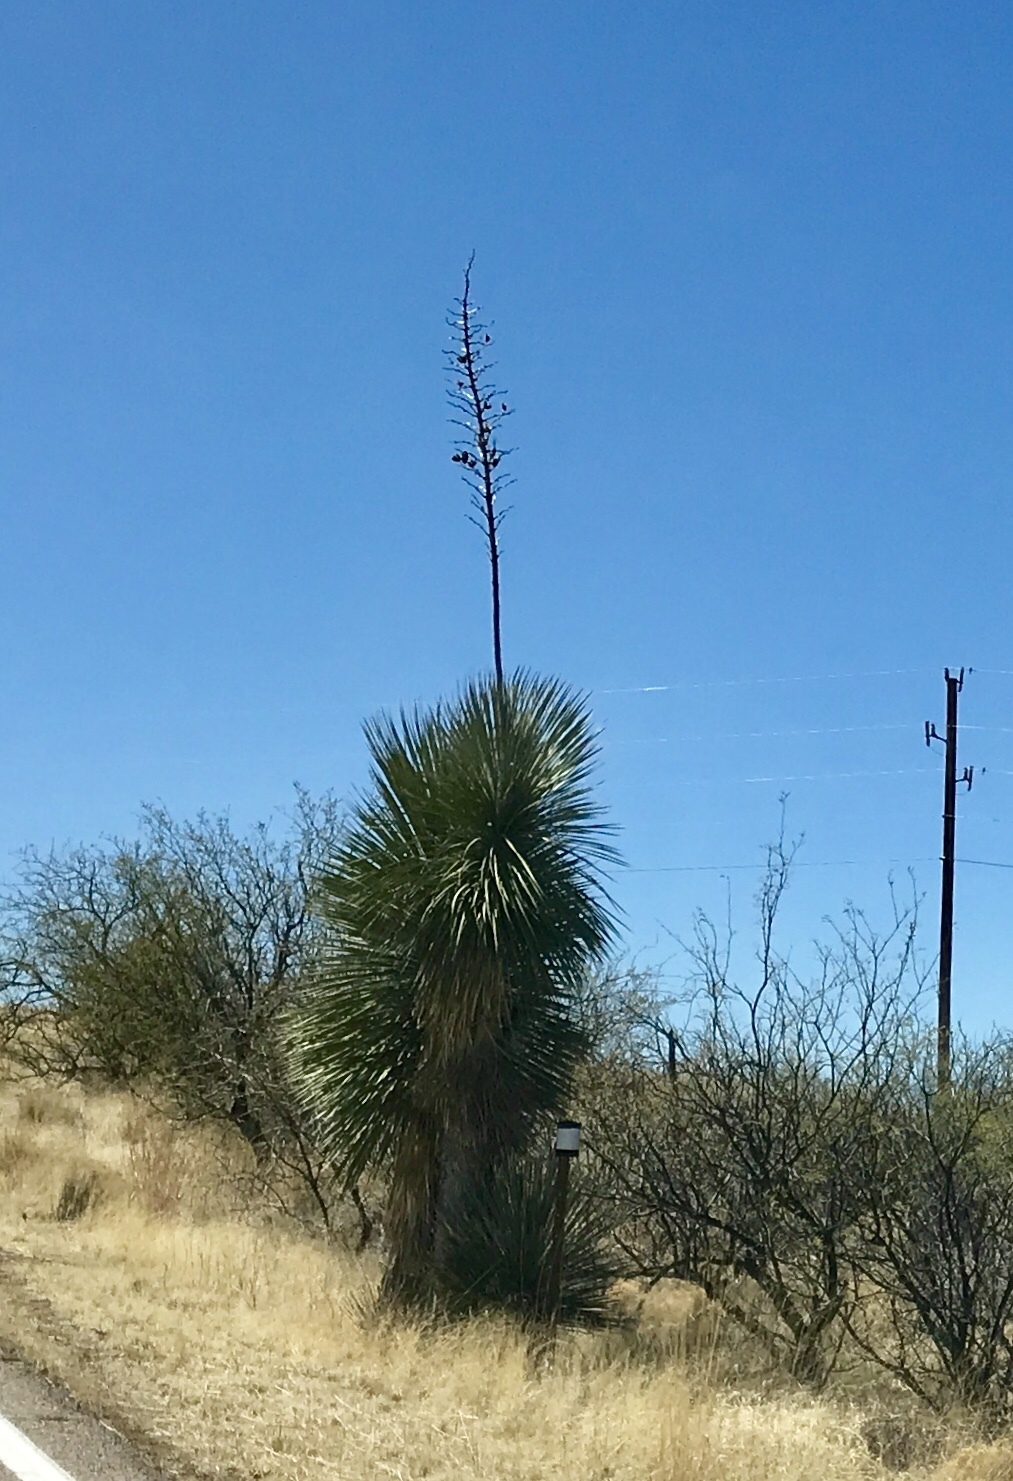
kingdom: Plantae
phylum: Tracheophyta
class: Liliopsida
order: Asparagales
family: Asparagaceae
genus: Yucca
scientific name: Yucca elata
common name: Palmella
